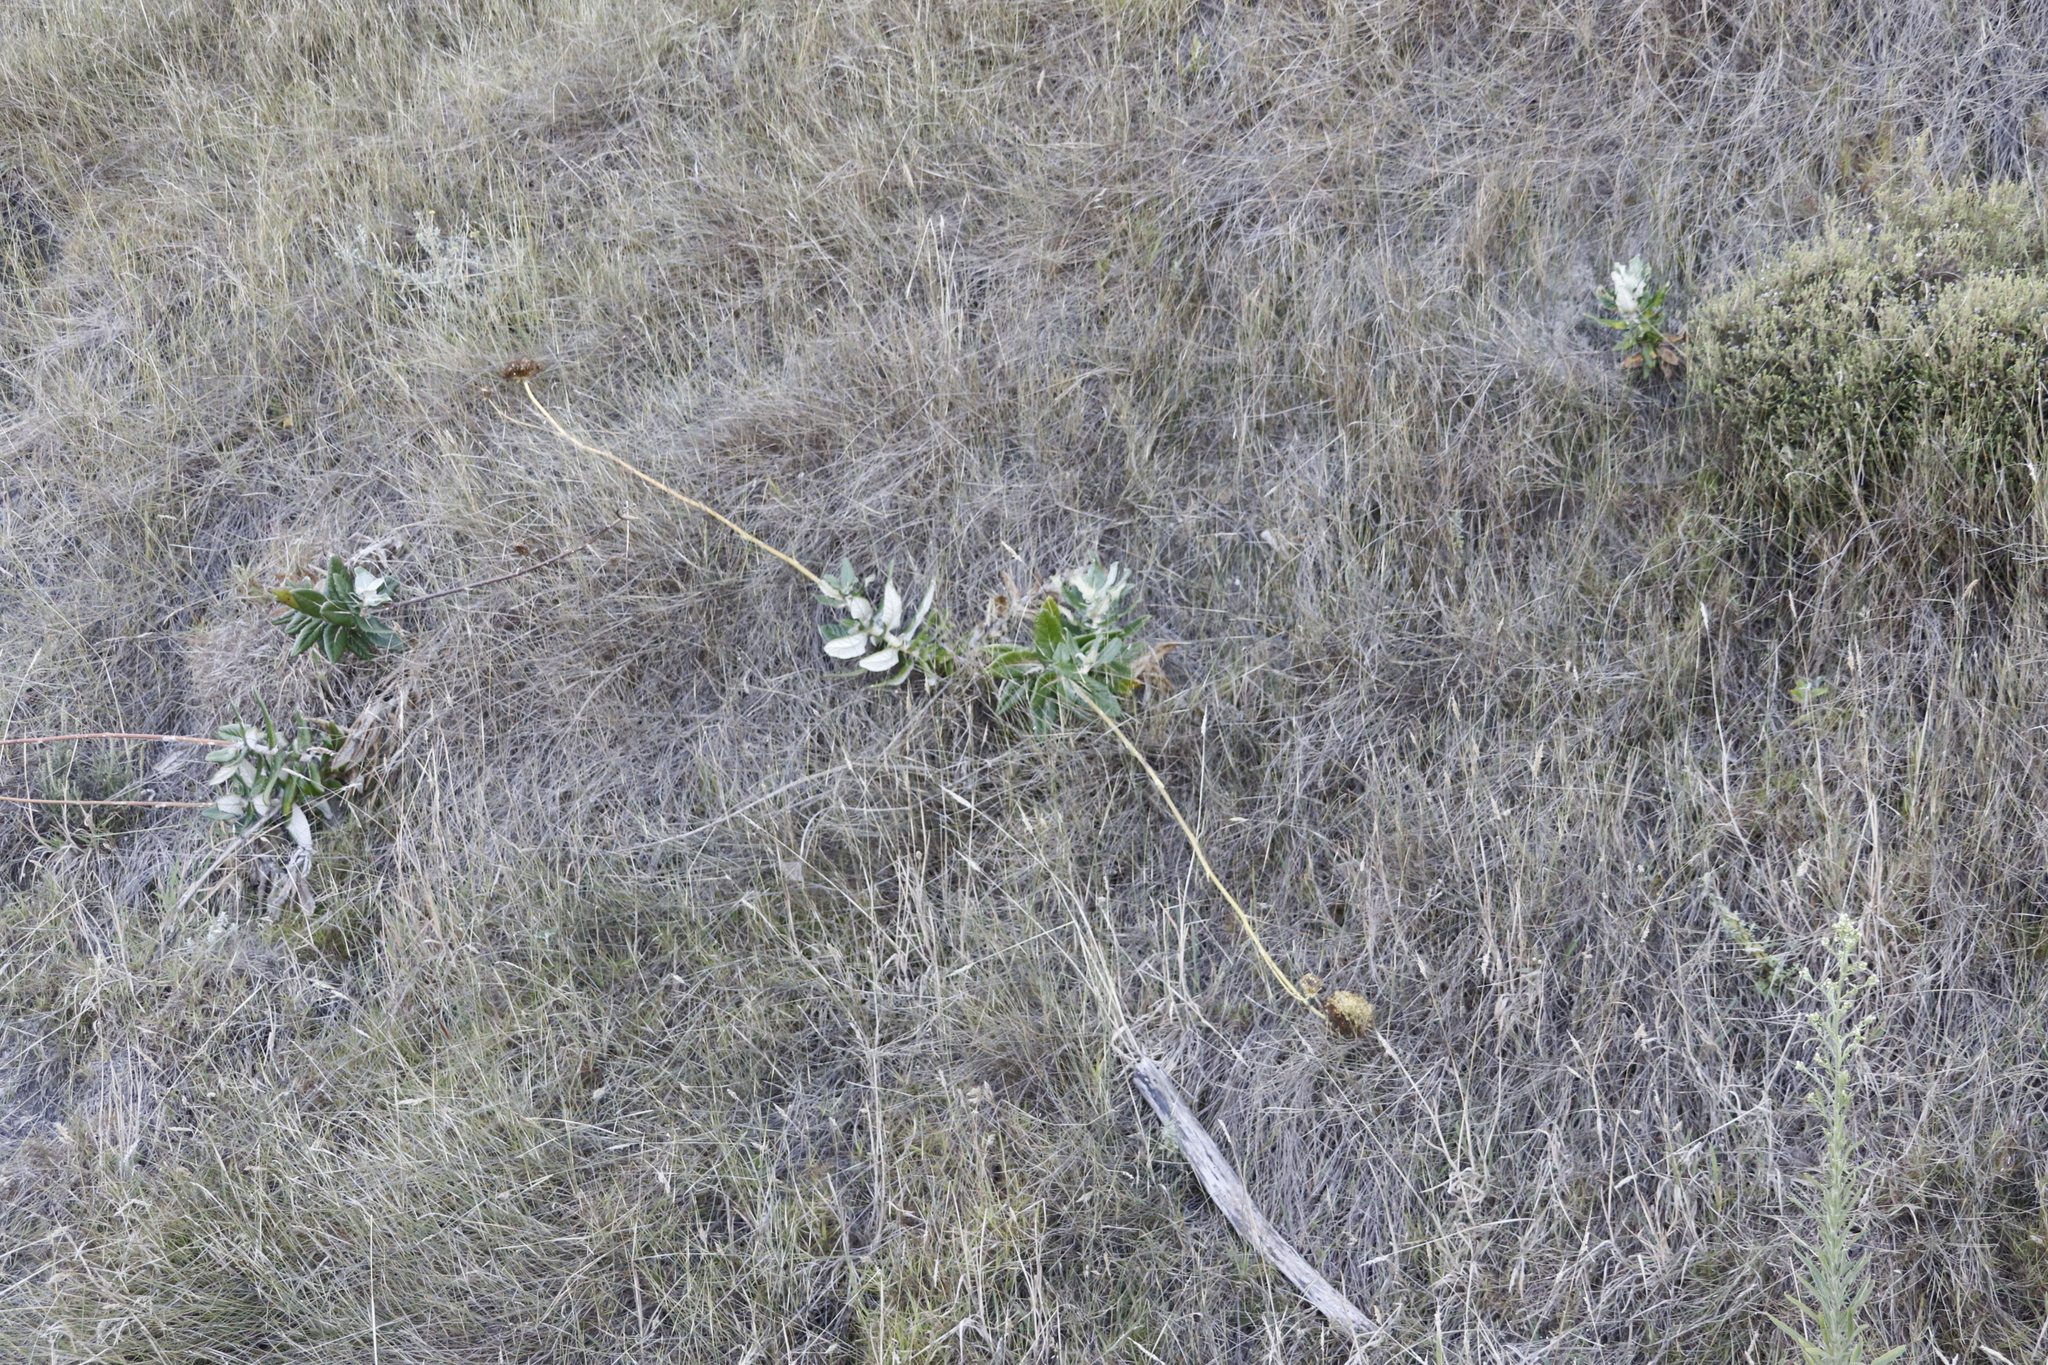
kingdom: Plantae
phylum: Tracheophyta
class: Magnoliopsida
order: Apiales
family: Apiaceae
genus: Hermas
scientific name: Hermas villosa
